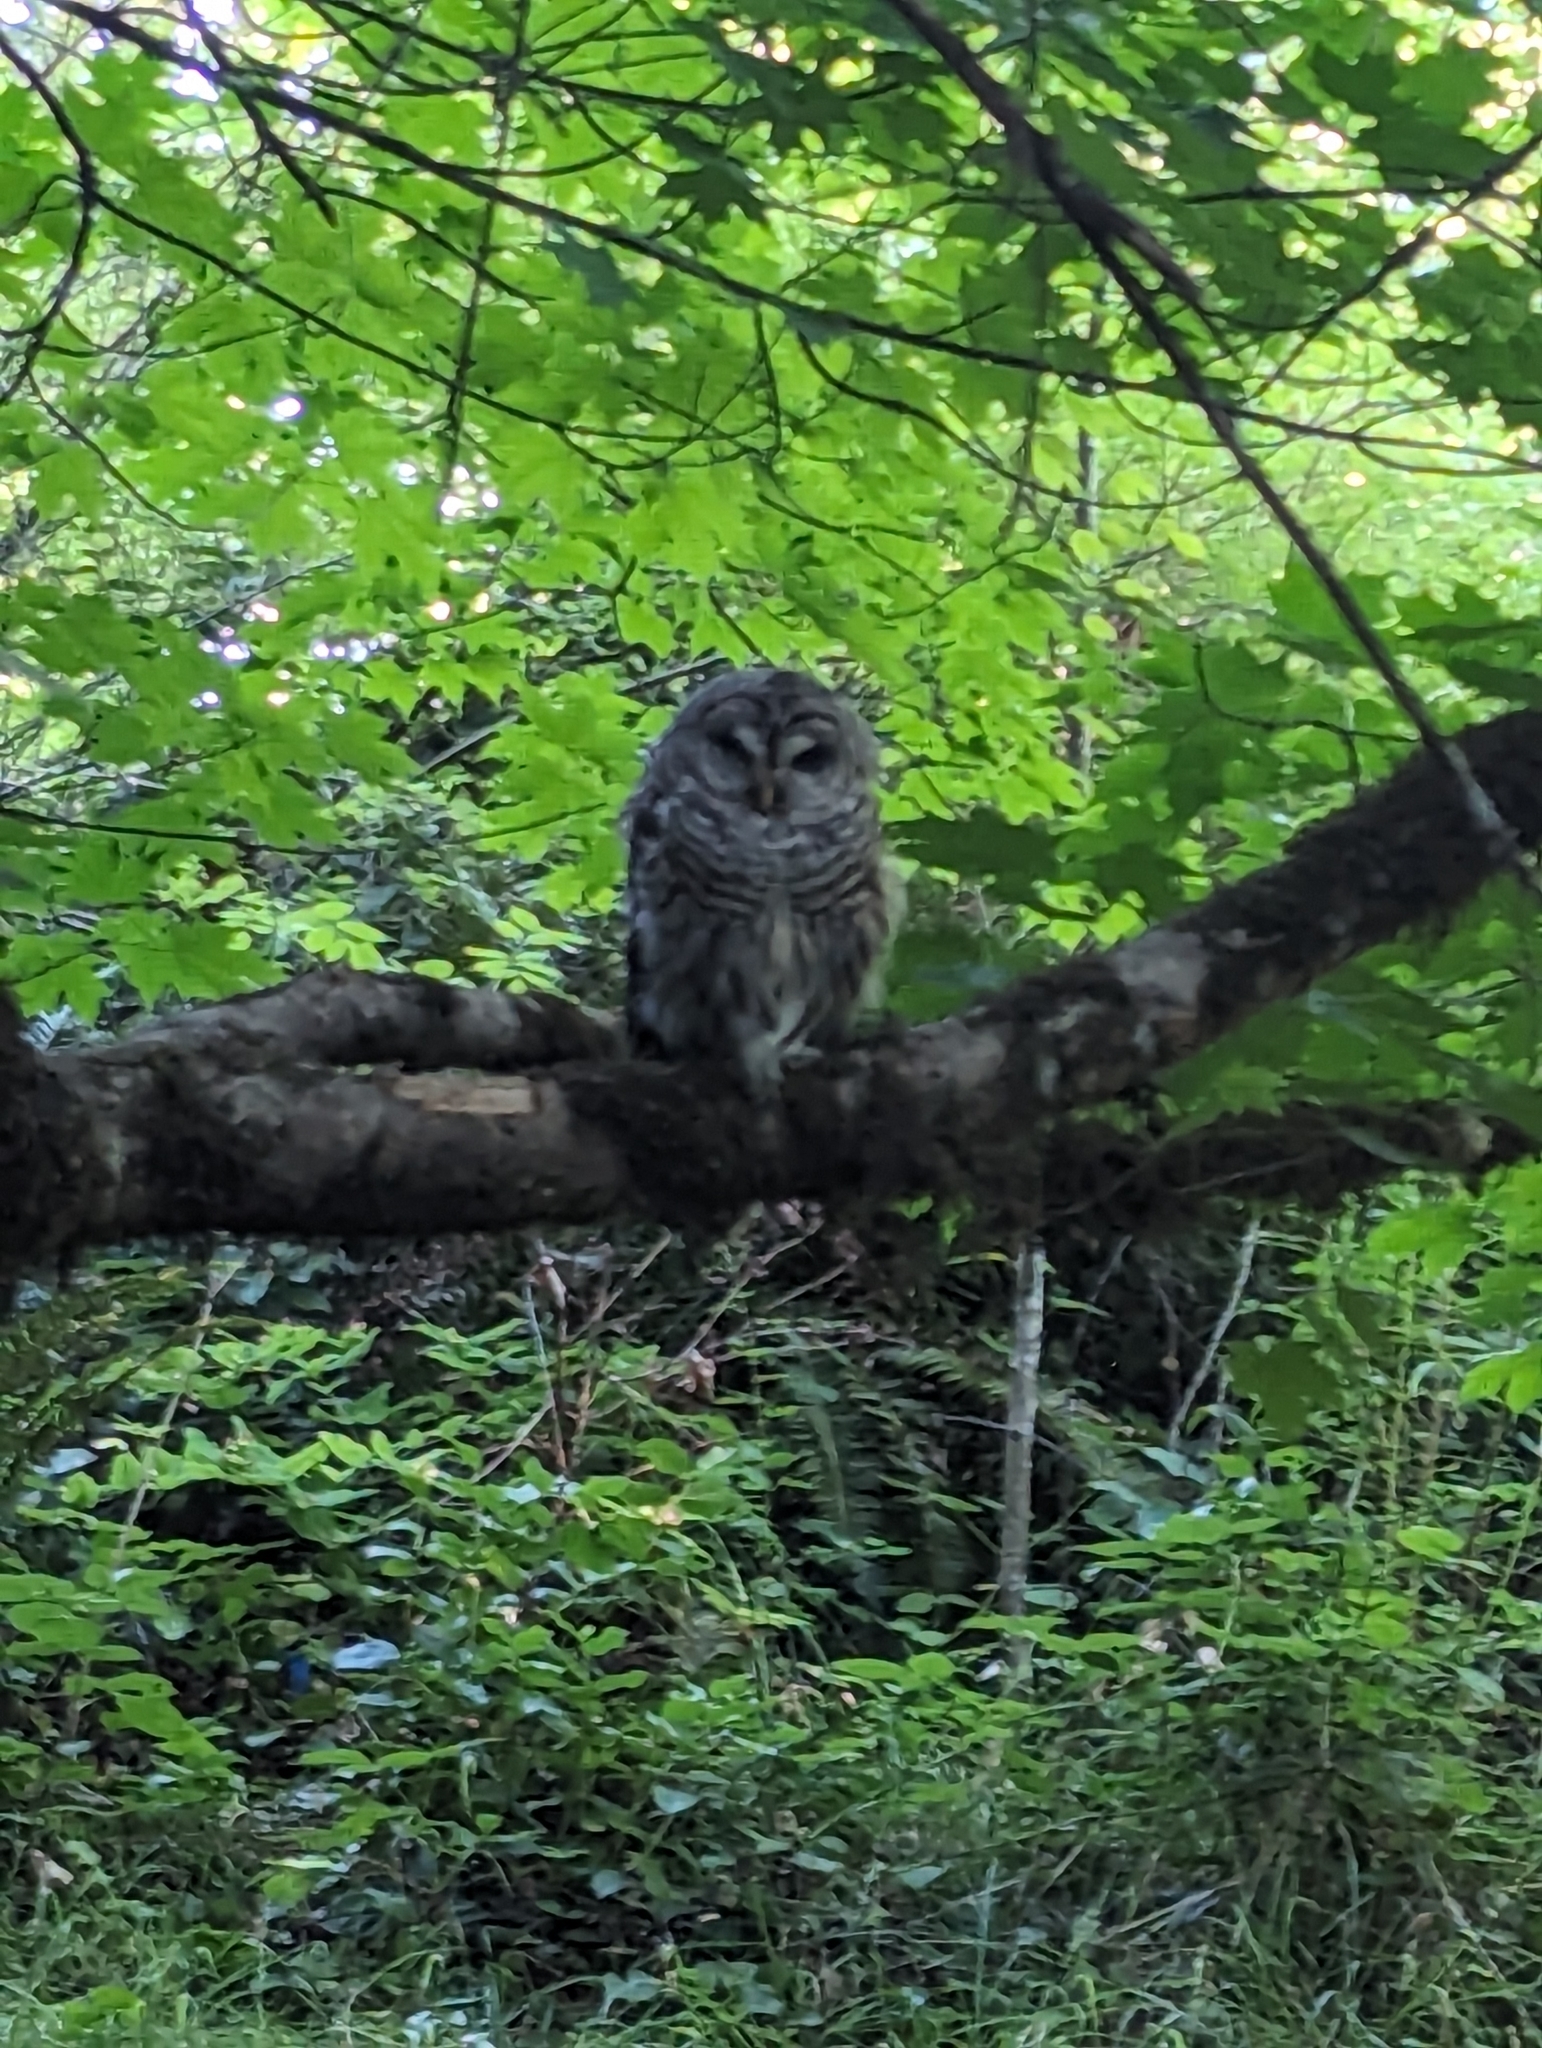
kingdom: Animalia
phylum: Chordata
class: Aves
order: Strigiformes
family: Strigidae
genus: Strix
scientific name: Strix varia
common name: Barred owl
